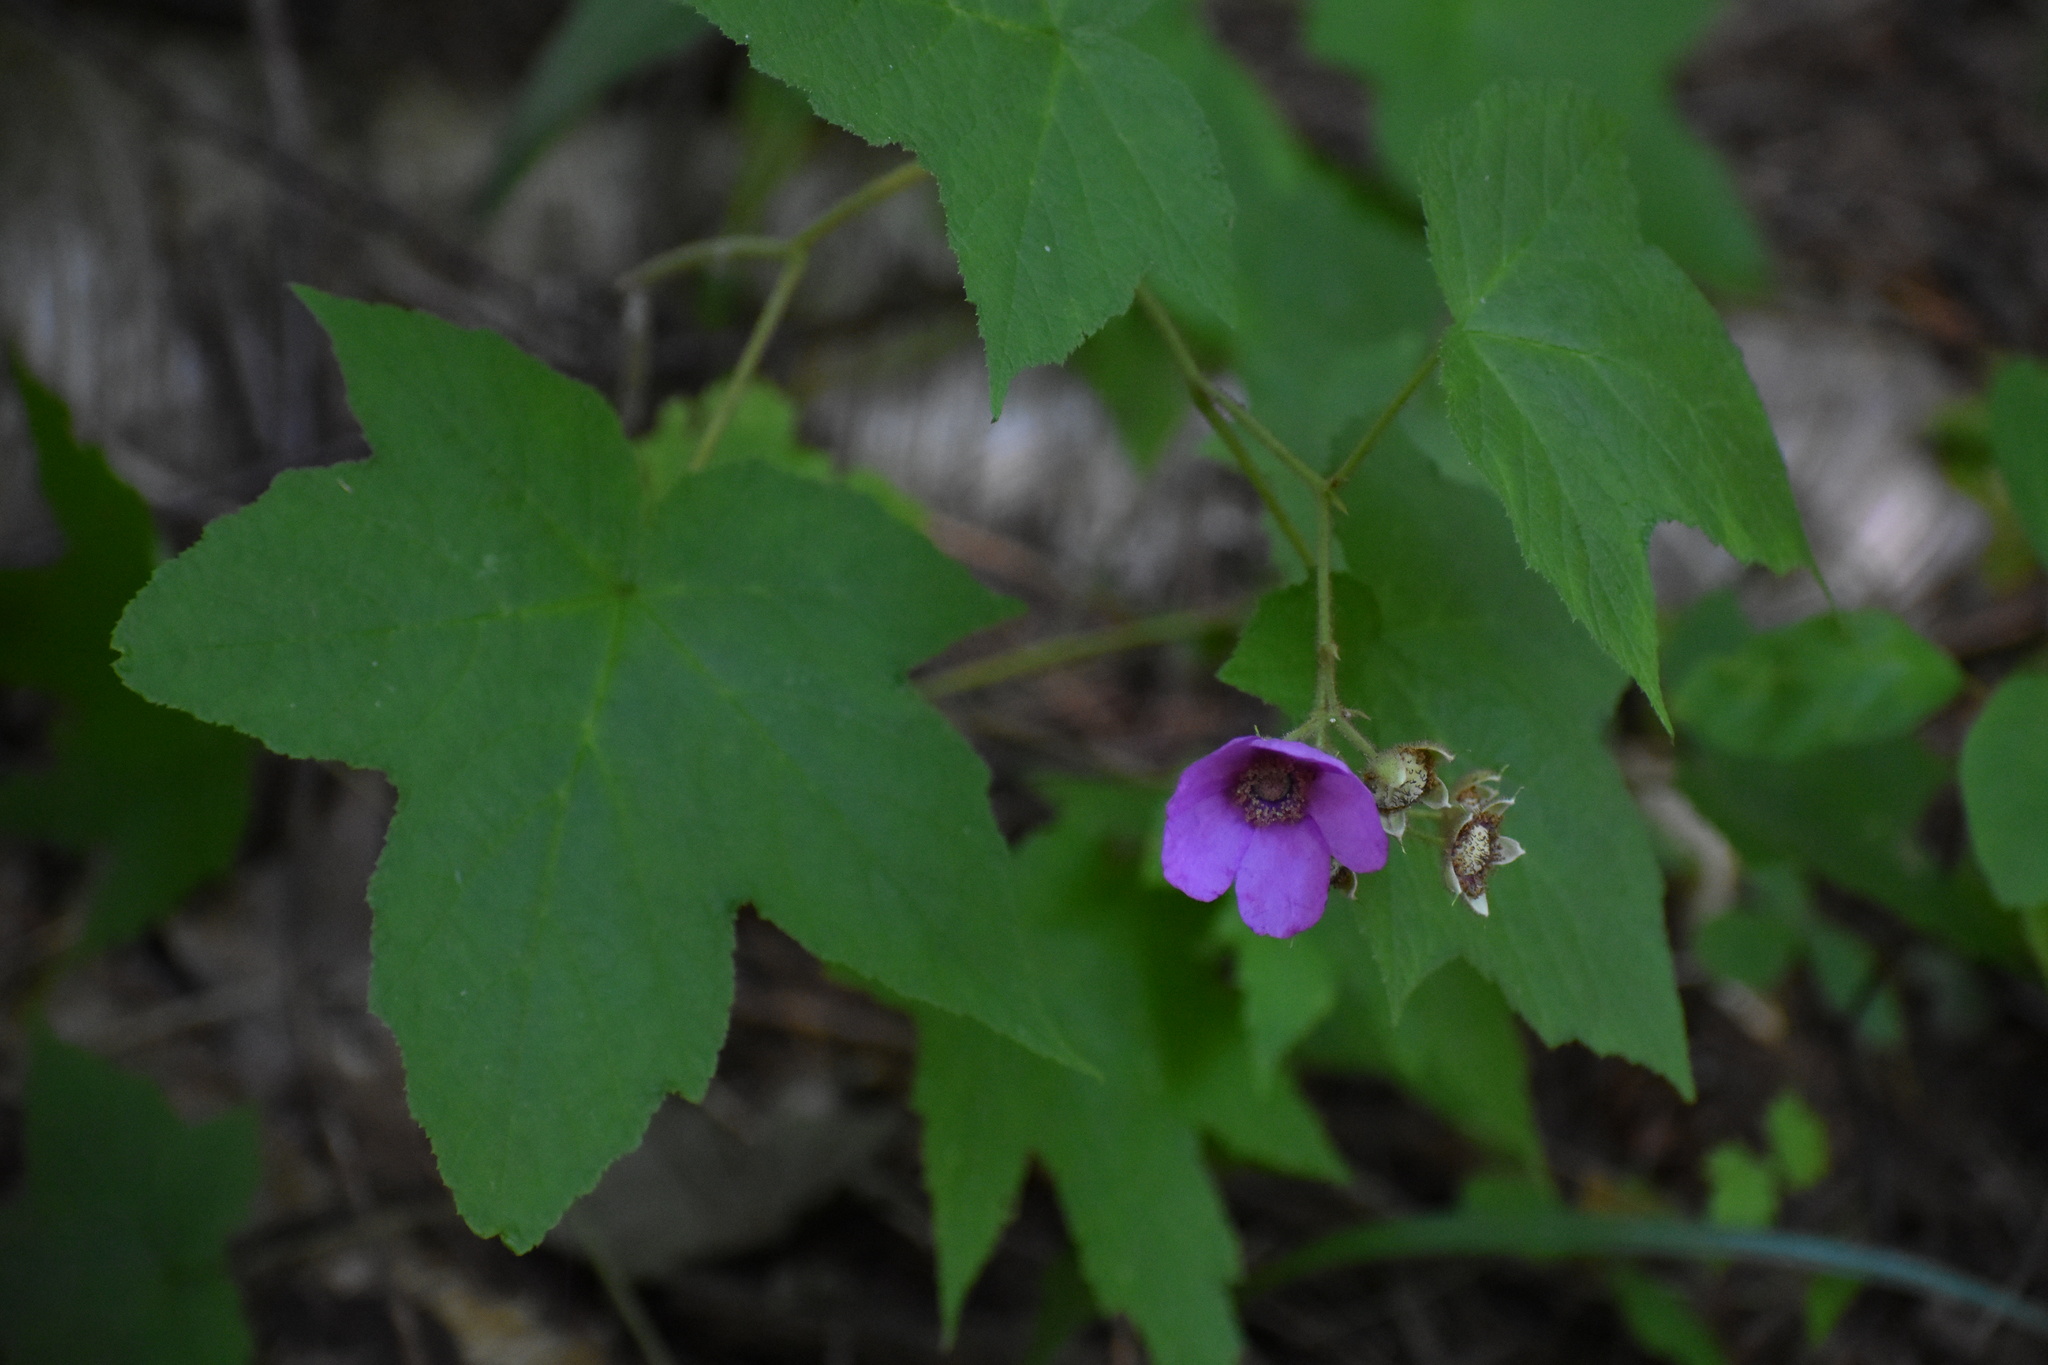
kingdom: Plantae
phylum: Tracheophyta
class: Magnoliopsida
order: Rosales
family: Rosaceae
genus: Rubus
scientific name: Rubus odoratus
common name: Purple-flowered raspberry
